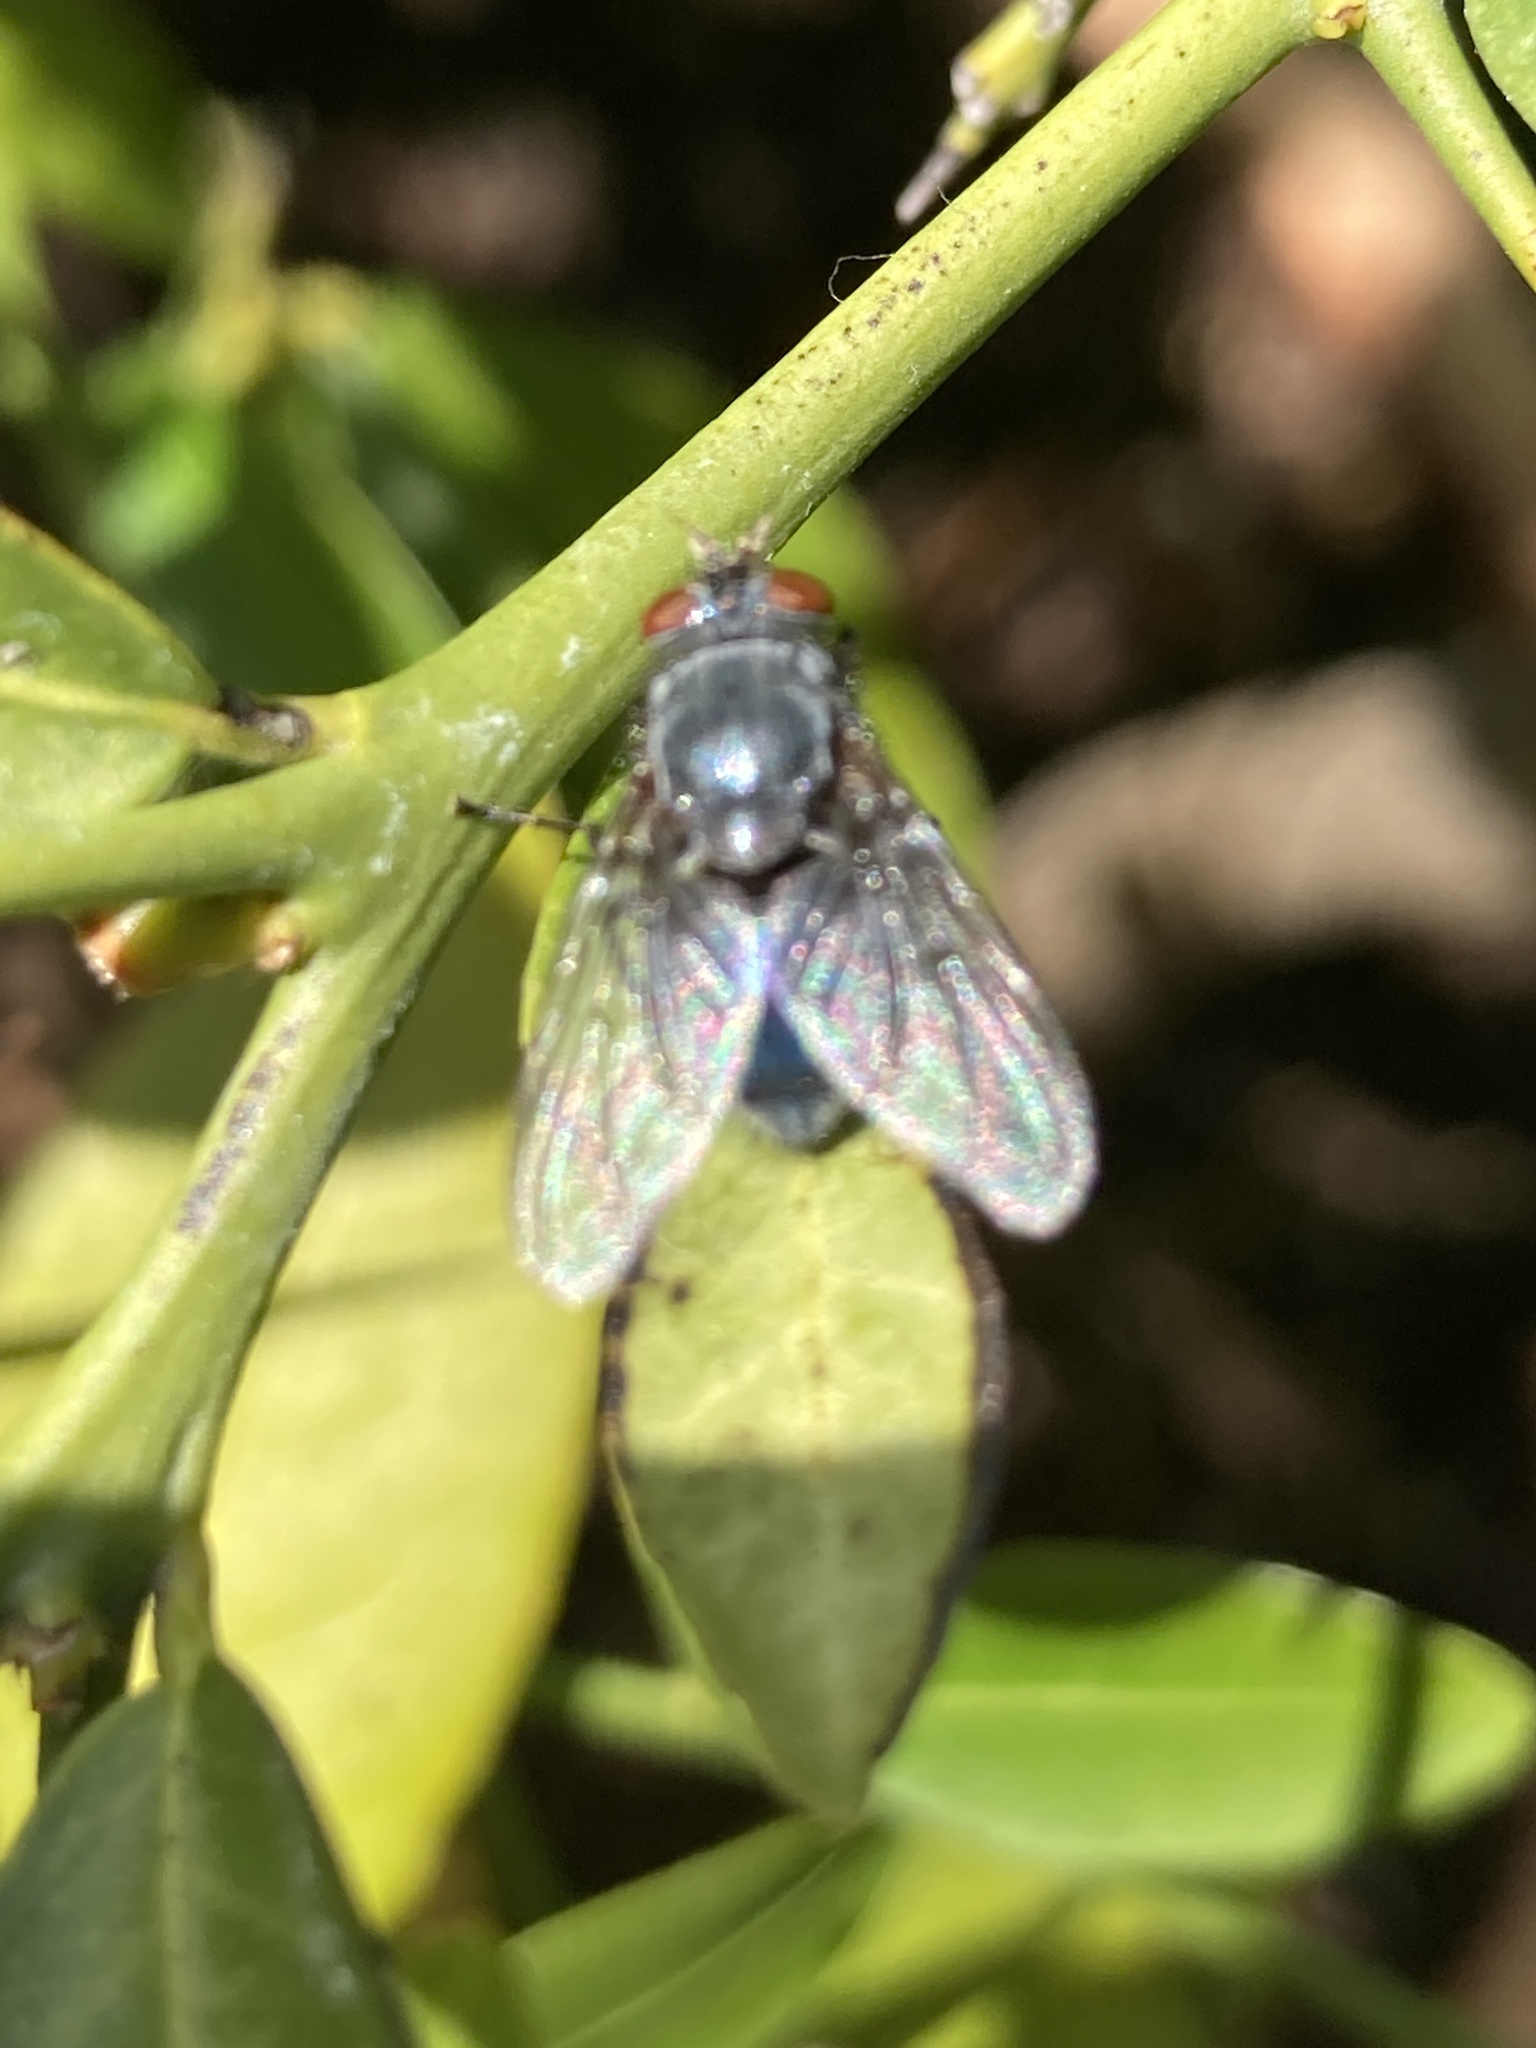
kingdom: Animalia
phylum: Arthropoda
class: Insecta
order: Diptera
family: Calliphoridae
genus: Calliphora
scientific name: Calliphora vicina
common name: Common blow flie
